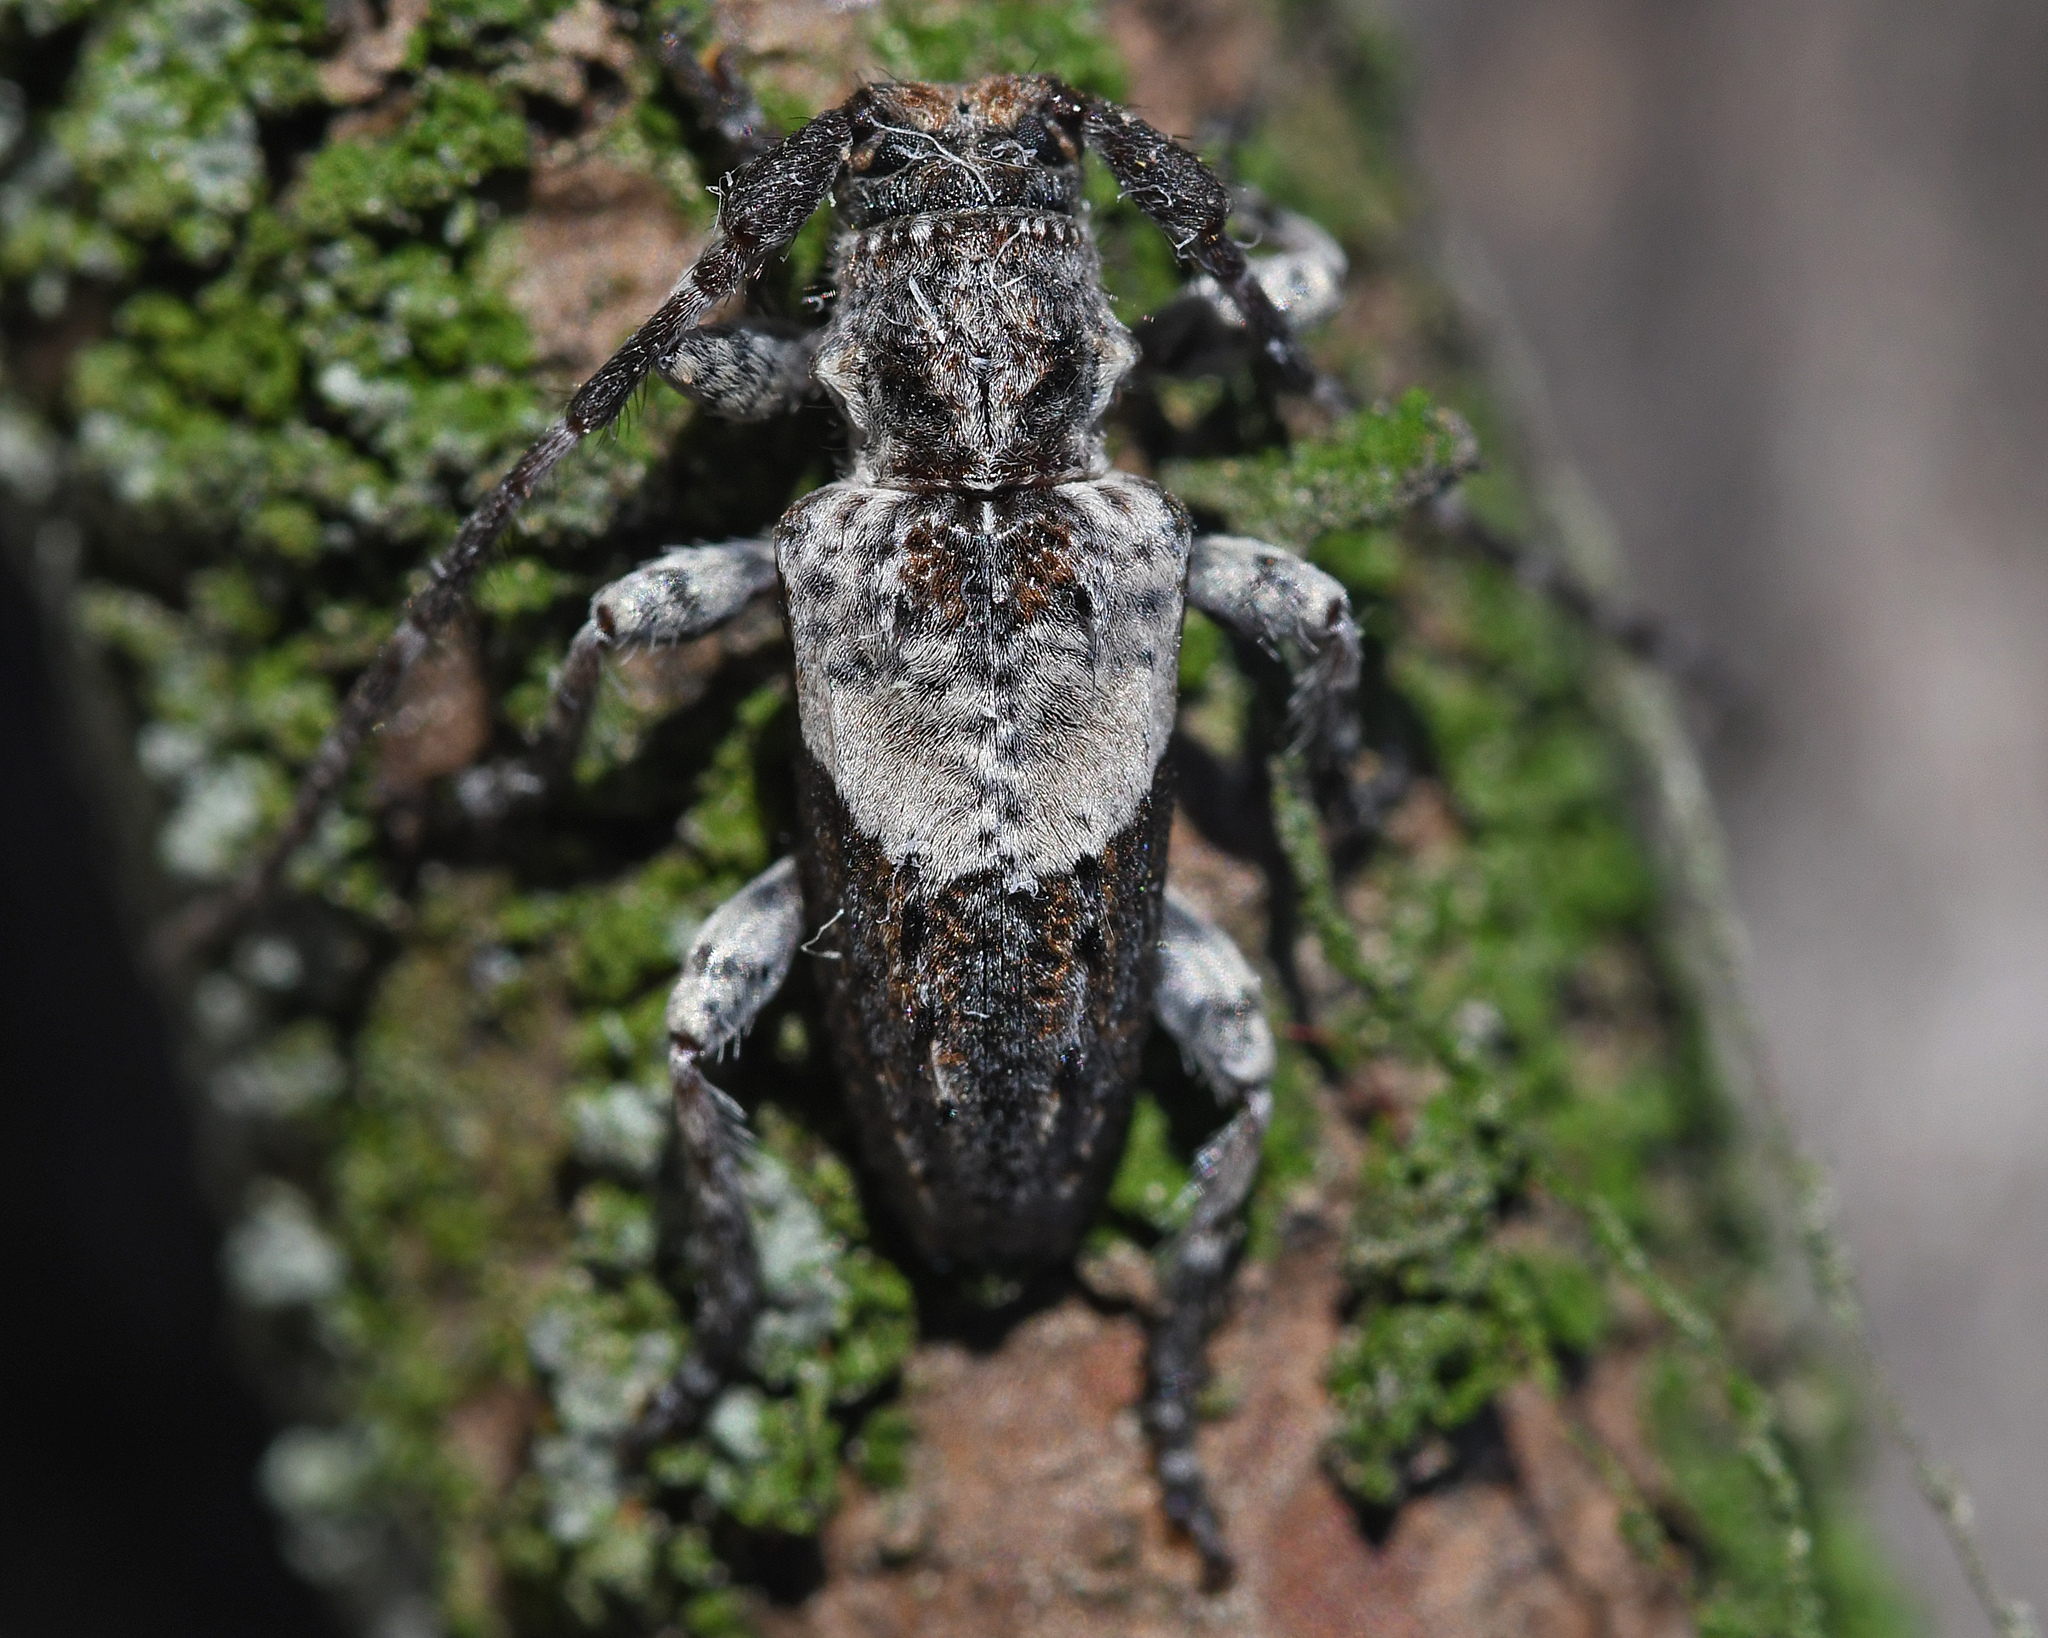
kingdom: Animalia
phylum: Arthropoda
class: Insecta
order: Coleoptera
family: Cerambycidae
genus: Pogonocherus
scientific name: Pogonocherus anatolicus
